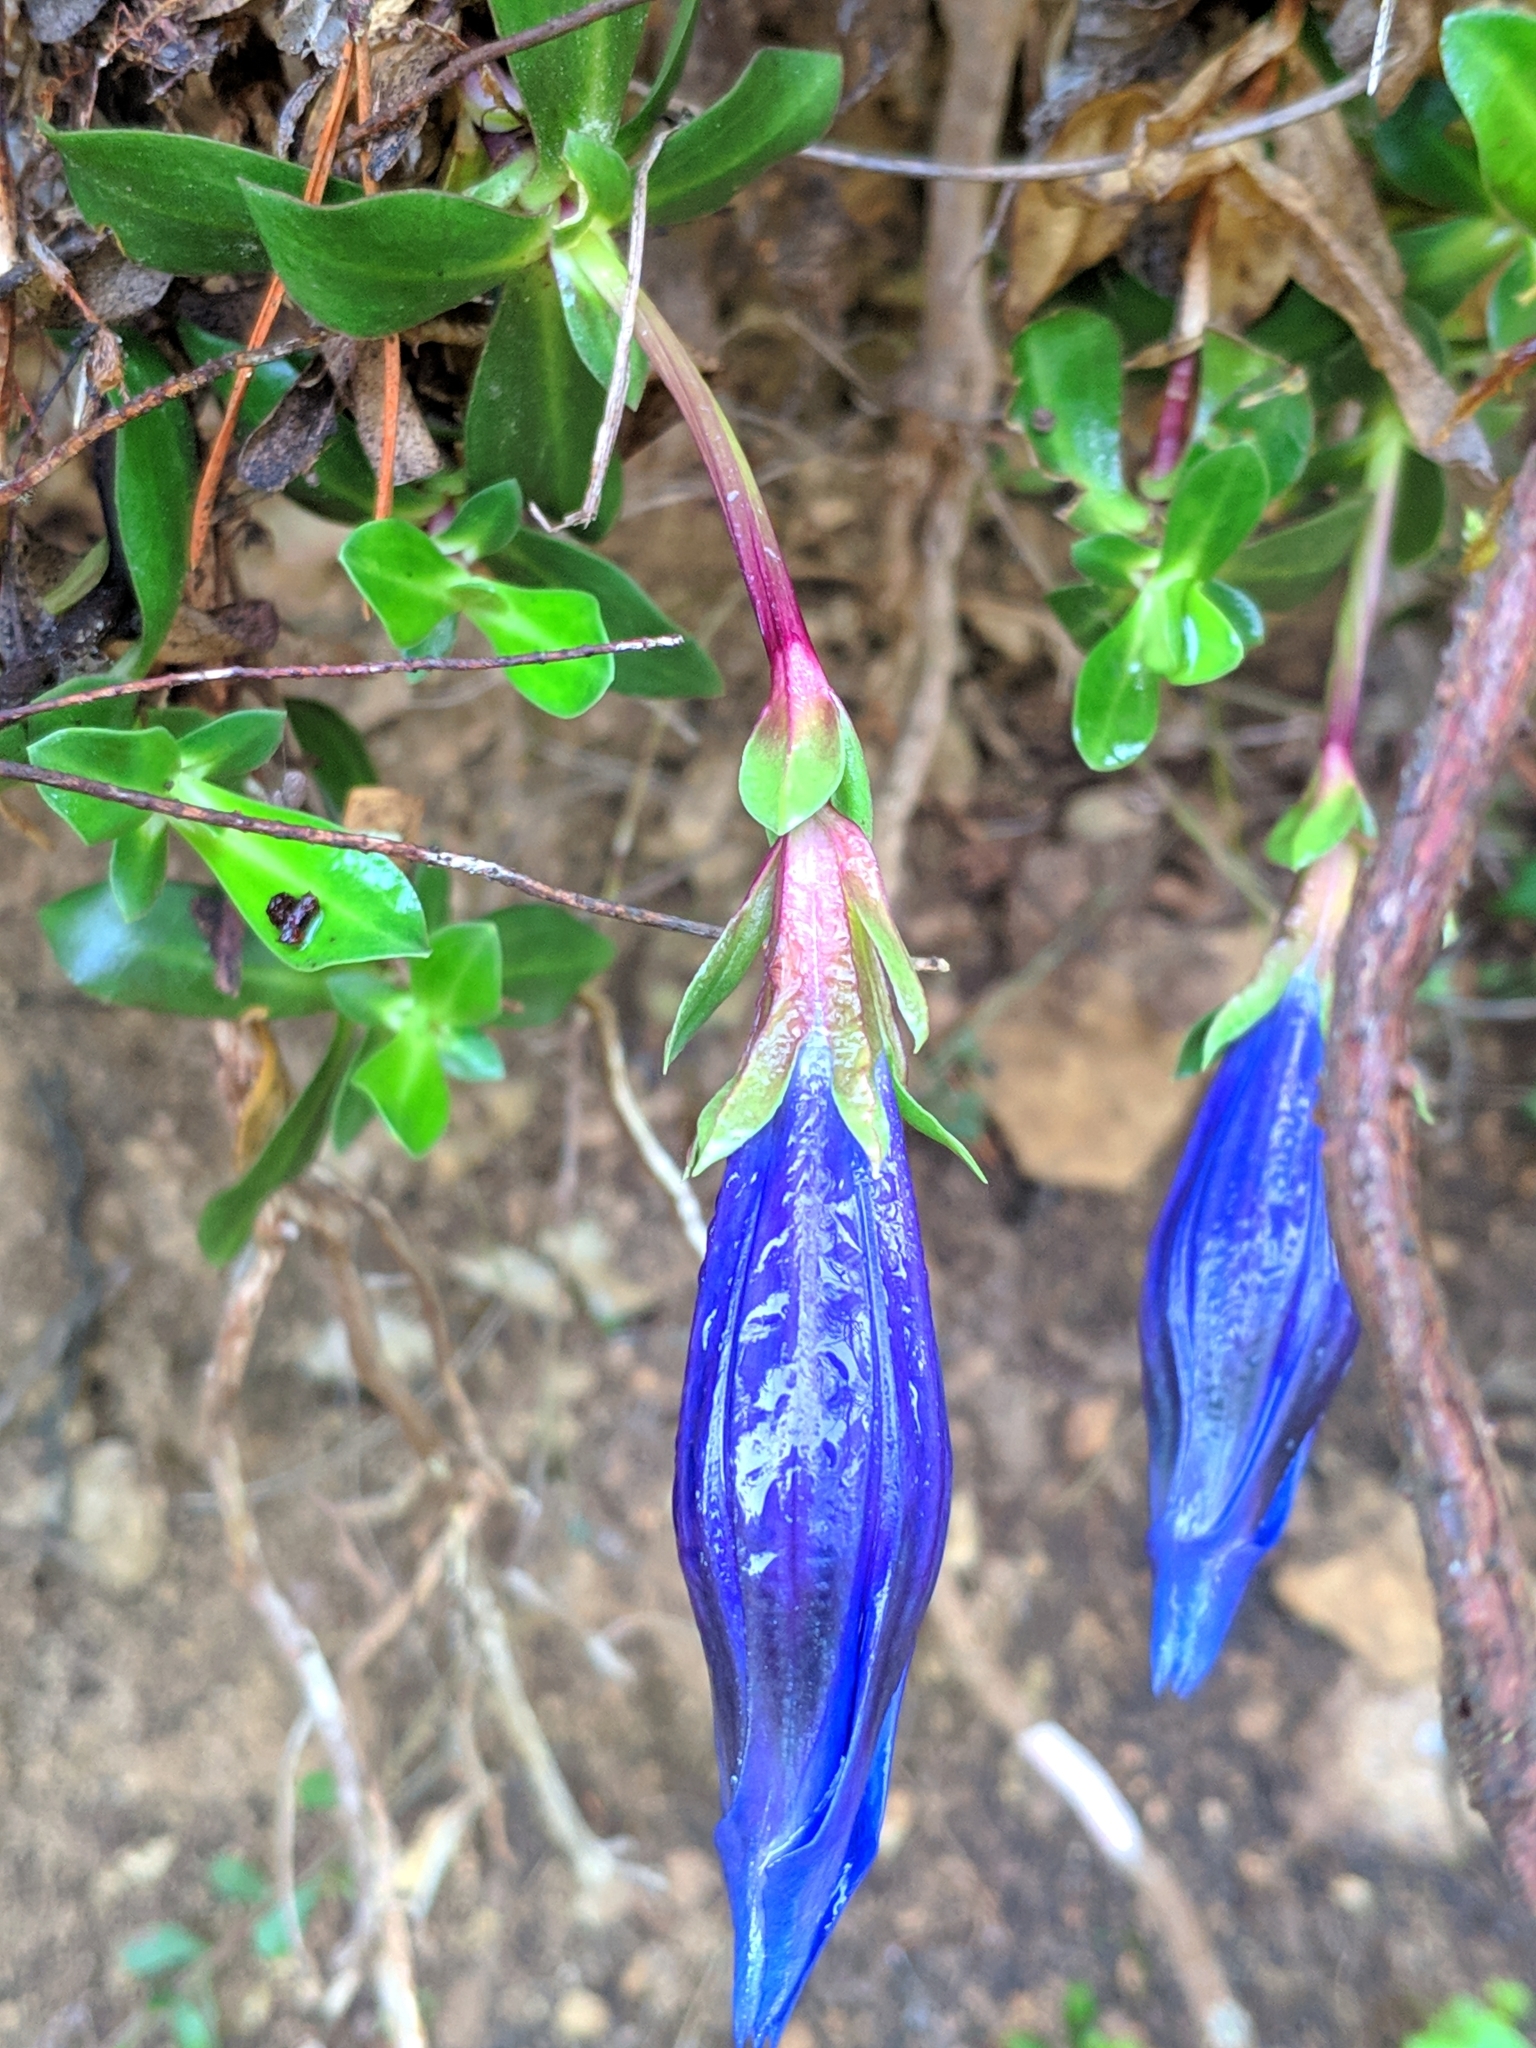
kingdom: Plantae
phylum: Tracheophyta
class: Magnoliopsida
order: Gentianales
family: Gentianaceae
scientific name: Gentianaceae
